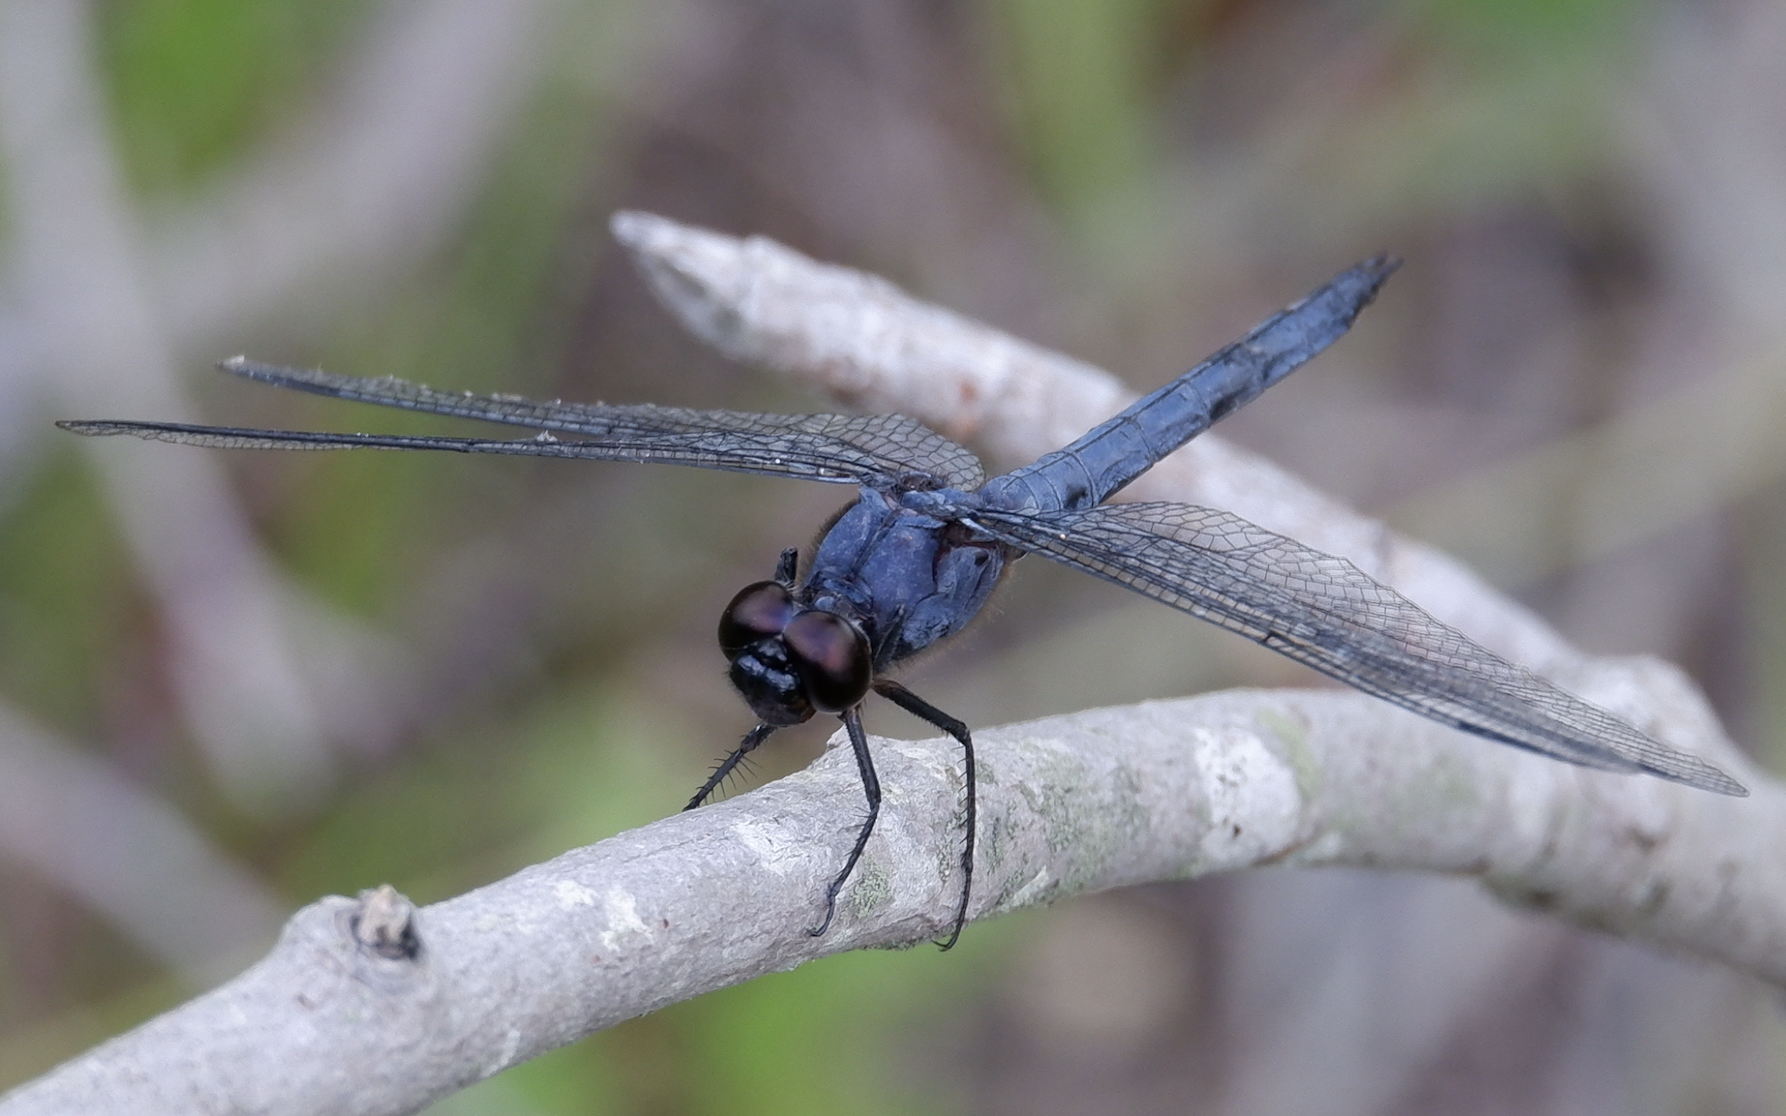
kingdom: Animalia
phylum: Arthropoda
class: Insecta
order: Odonata
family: Libellulidae
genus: Libellula
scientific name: Libellula incesta
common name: Slaty skimmer
